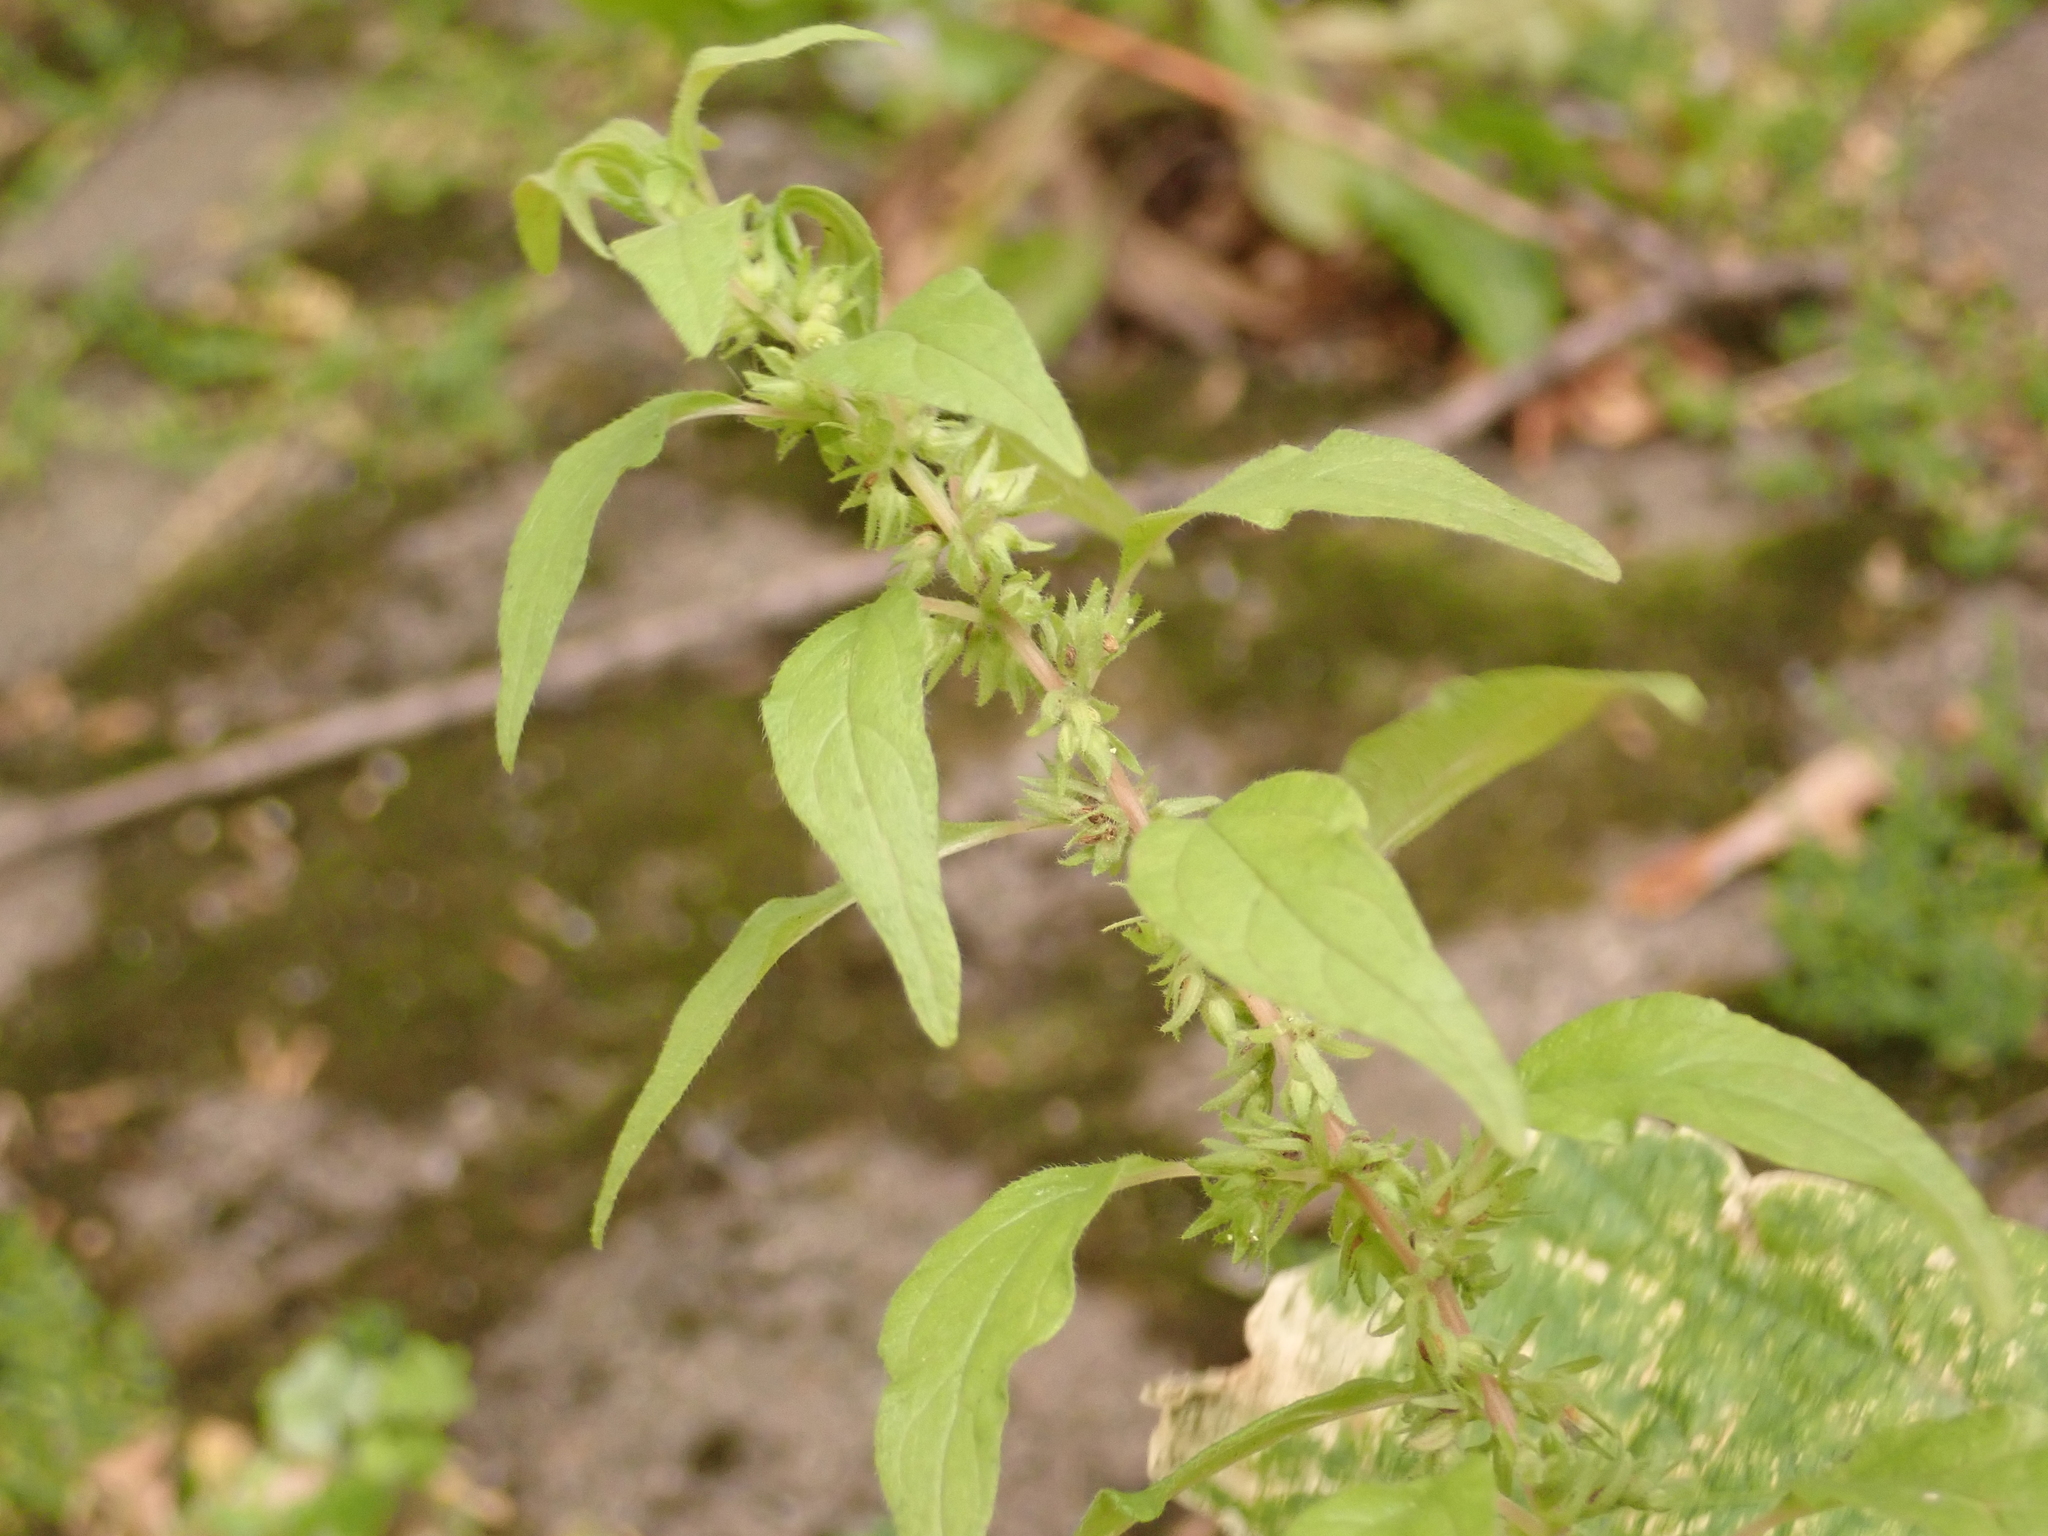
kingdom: Plantae
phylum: Tracheophyta
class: Magnoliopsida
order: Rosales
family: Urticaceae
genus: Parietaria
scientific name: Parietaria pensylvanica
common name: Pennsylvania pellitory
